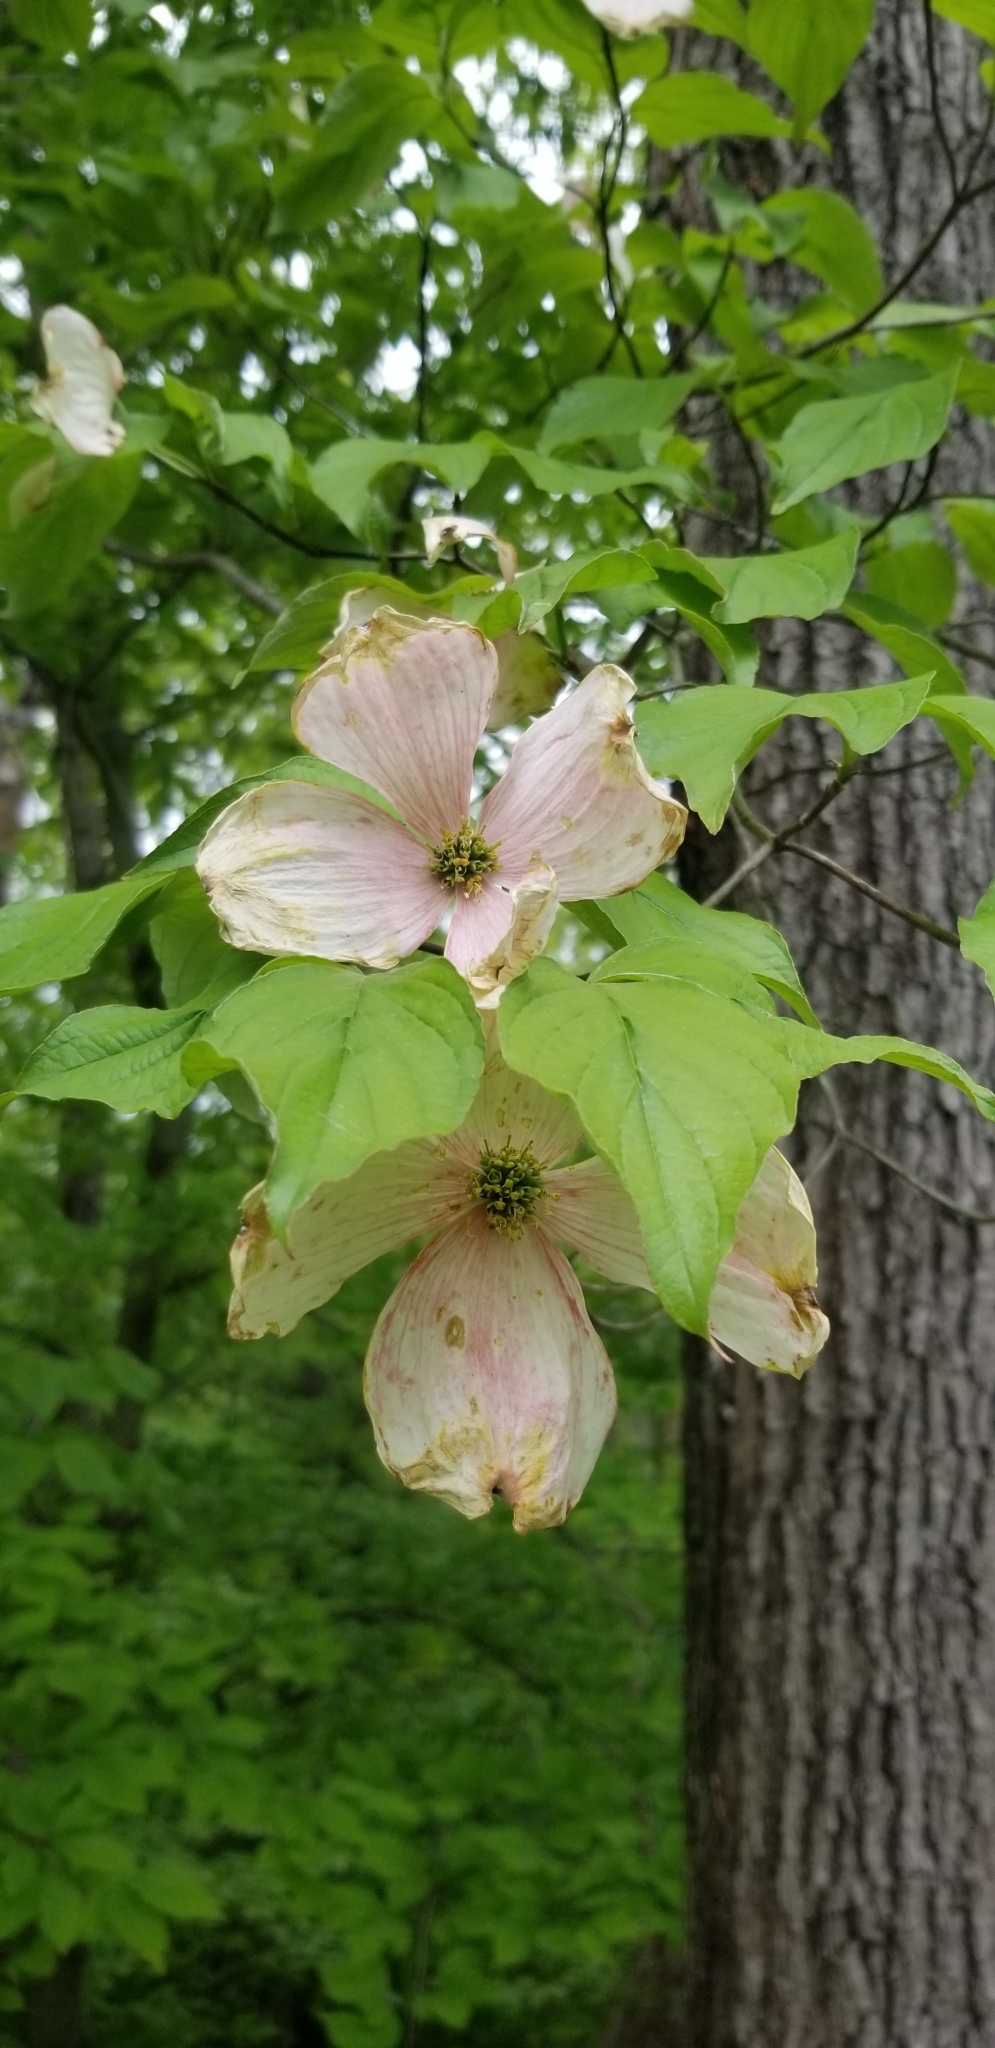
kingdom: Plantae
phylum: Tracheophyta
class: Magnoliopsida
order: Cornales
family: Cornaceae
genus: Cornus
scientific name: Cornus florida
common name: Flowering dogwood
